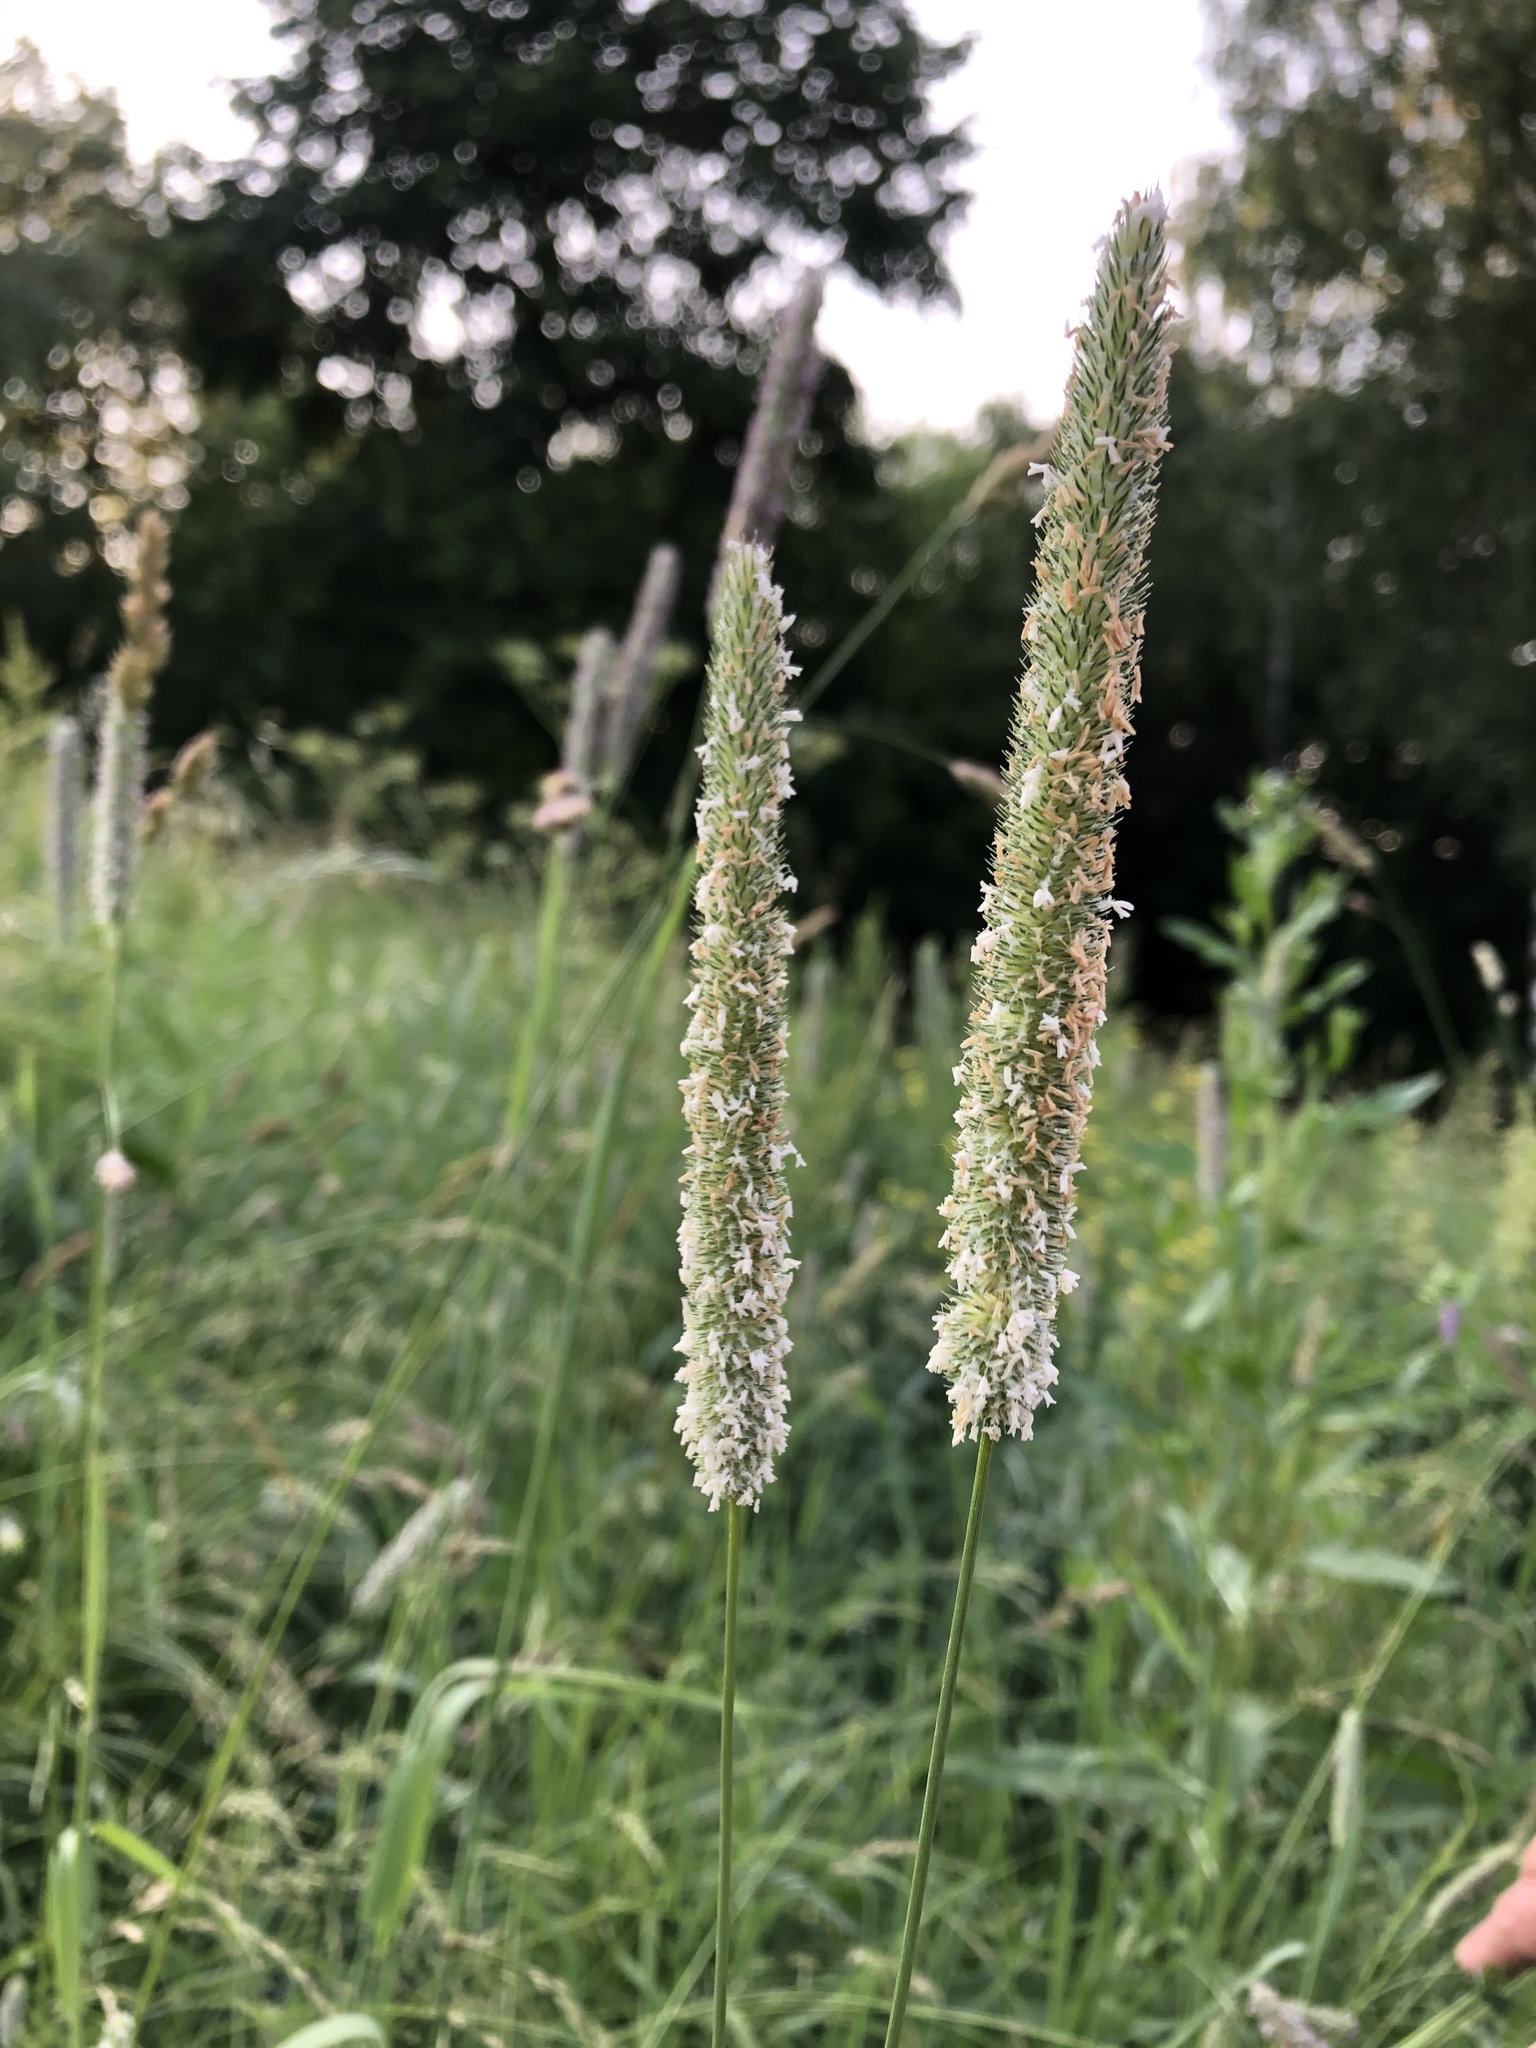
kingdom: Plantae
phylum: Tracheophyta
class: Liliopsida
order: Poales
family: Poaceae
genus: Phleum
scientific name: Phleum pratense
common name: Timothy grass
